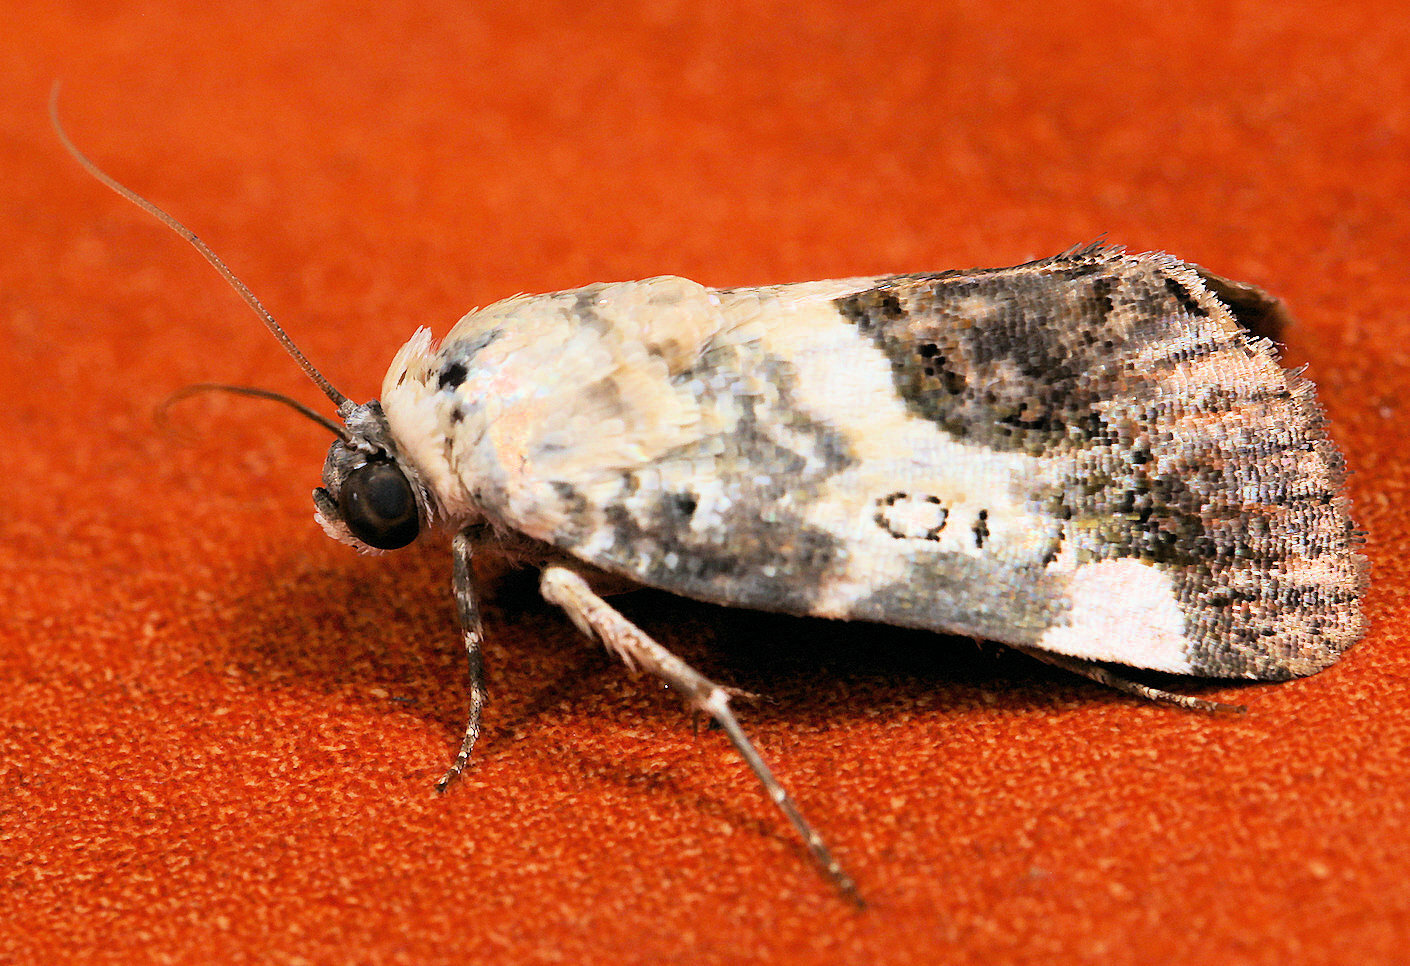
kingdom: Animalia
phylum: Arthropoda
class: Insecta
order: Lepidoptera
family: Noctuidae
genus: Acontia
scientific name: Acontia discoidea
